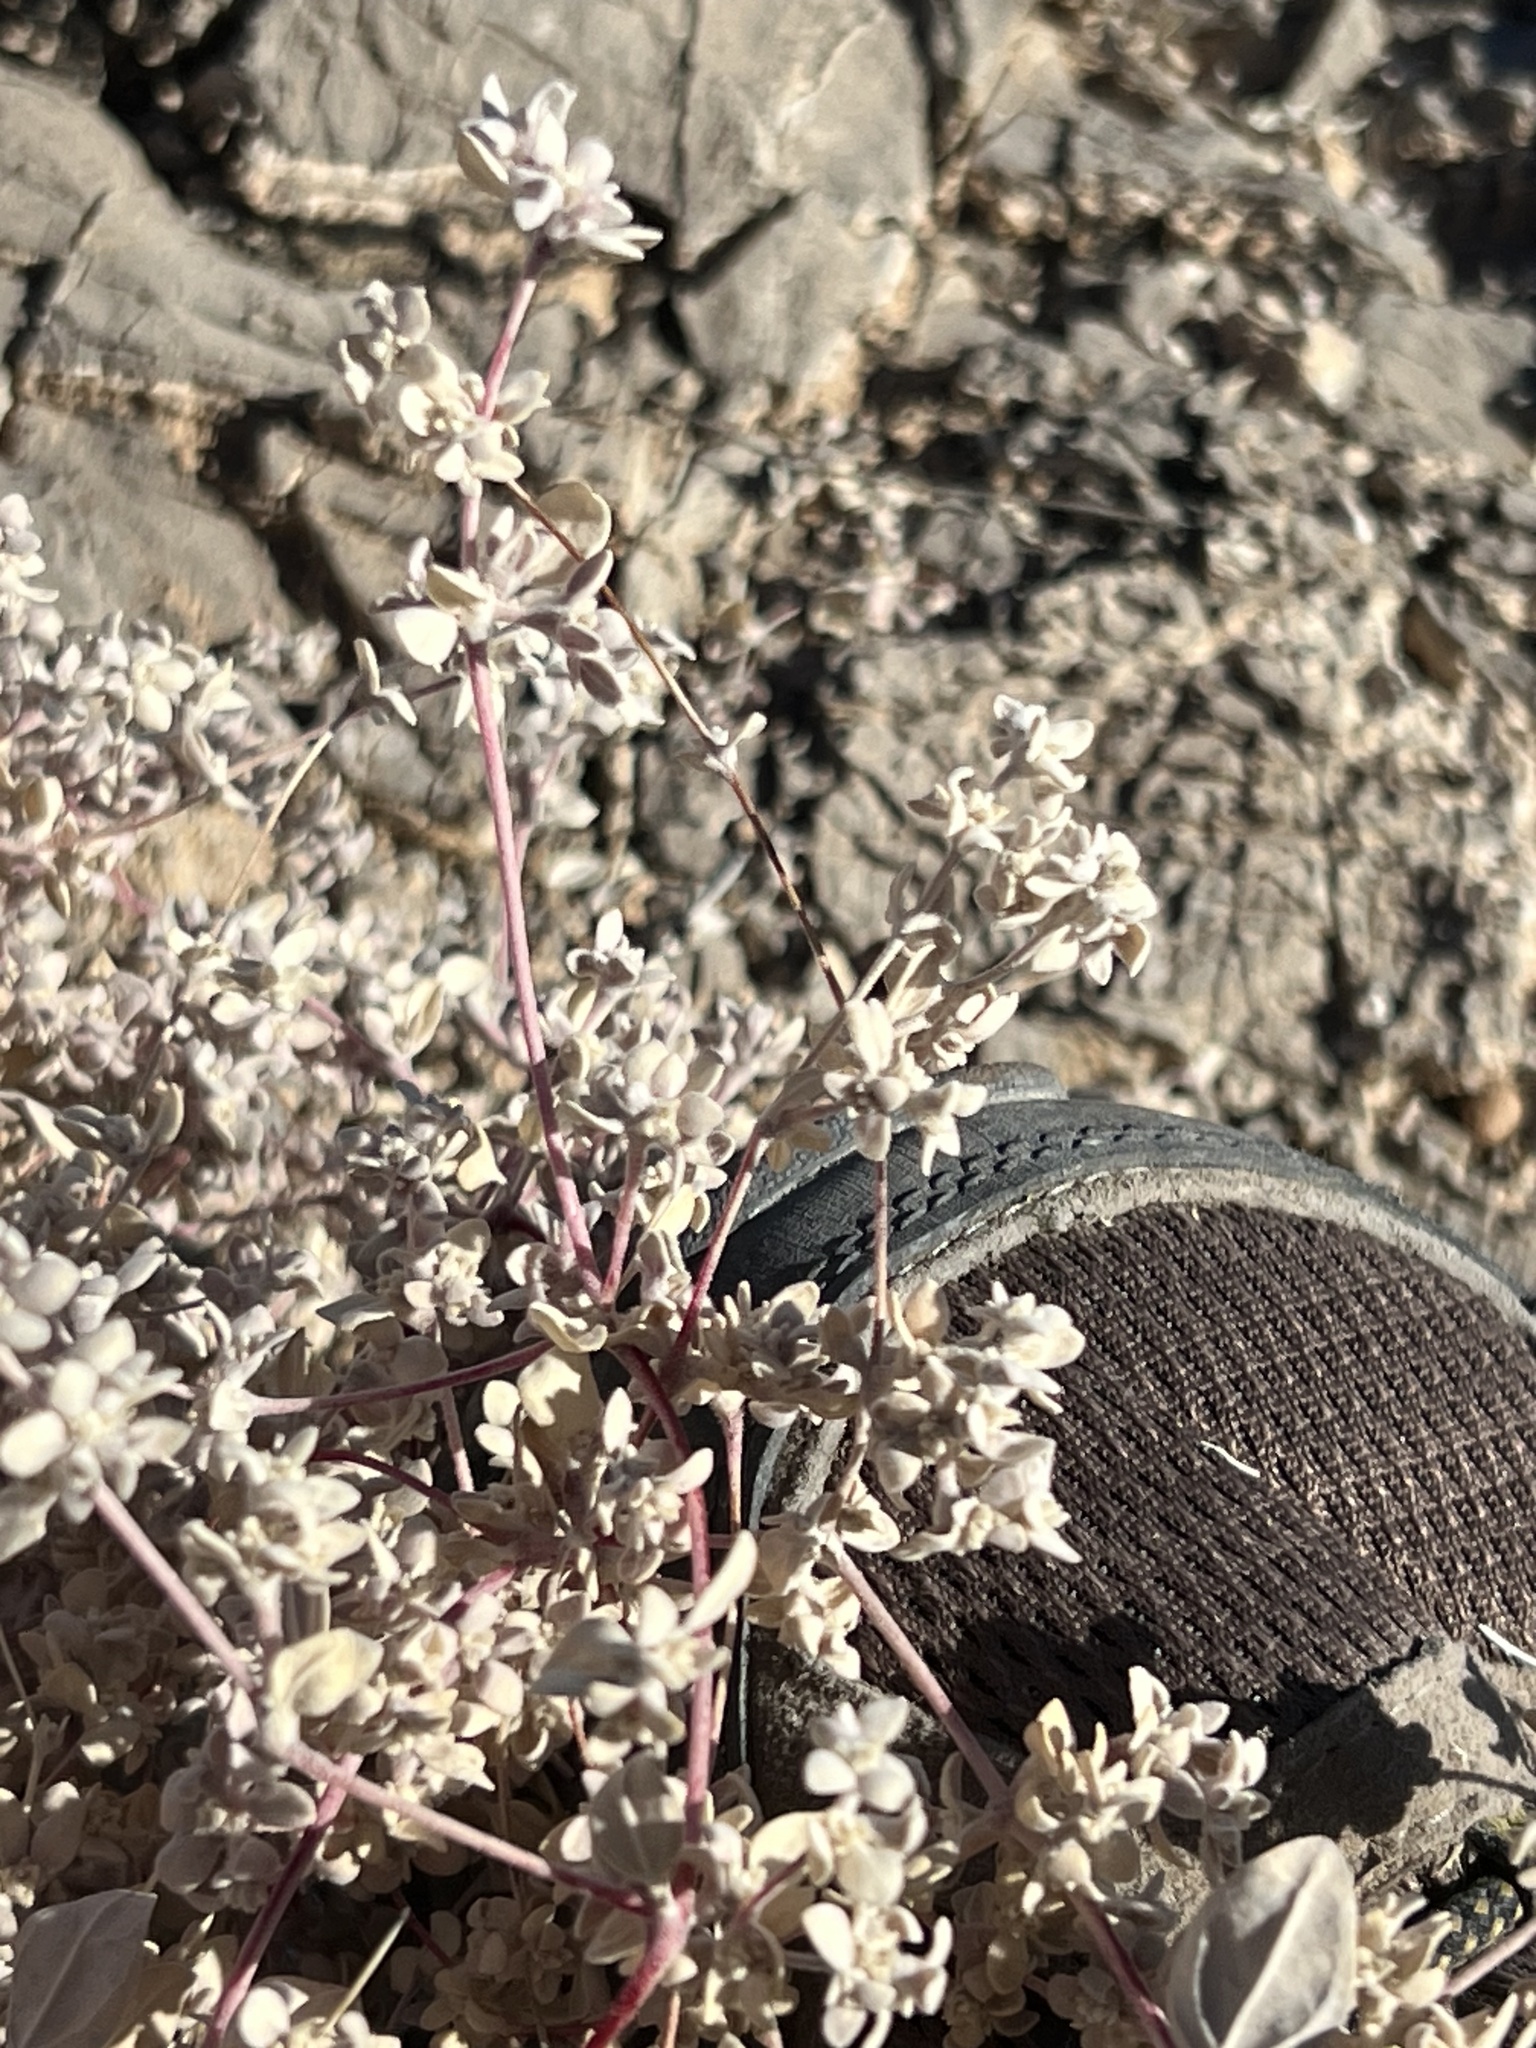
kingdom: Plantae
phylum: Tracheophyta
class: Magnoliopsida
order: Caryophyllales
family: Amaranthaceae
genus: Tidestromia
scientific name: Tidestromia suffruticosa
